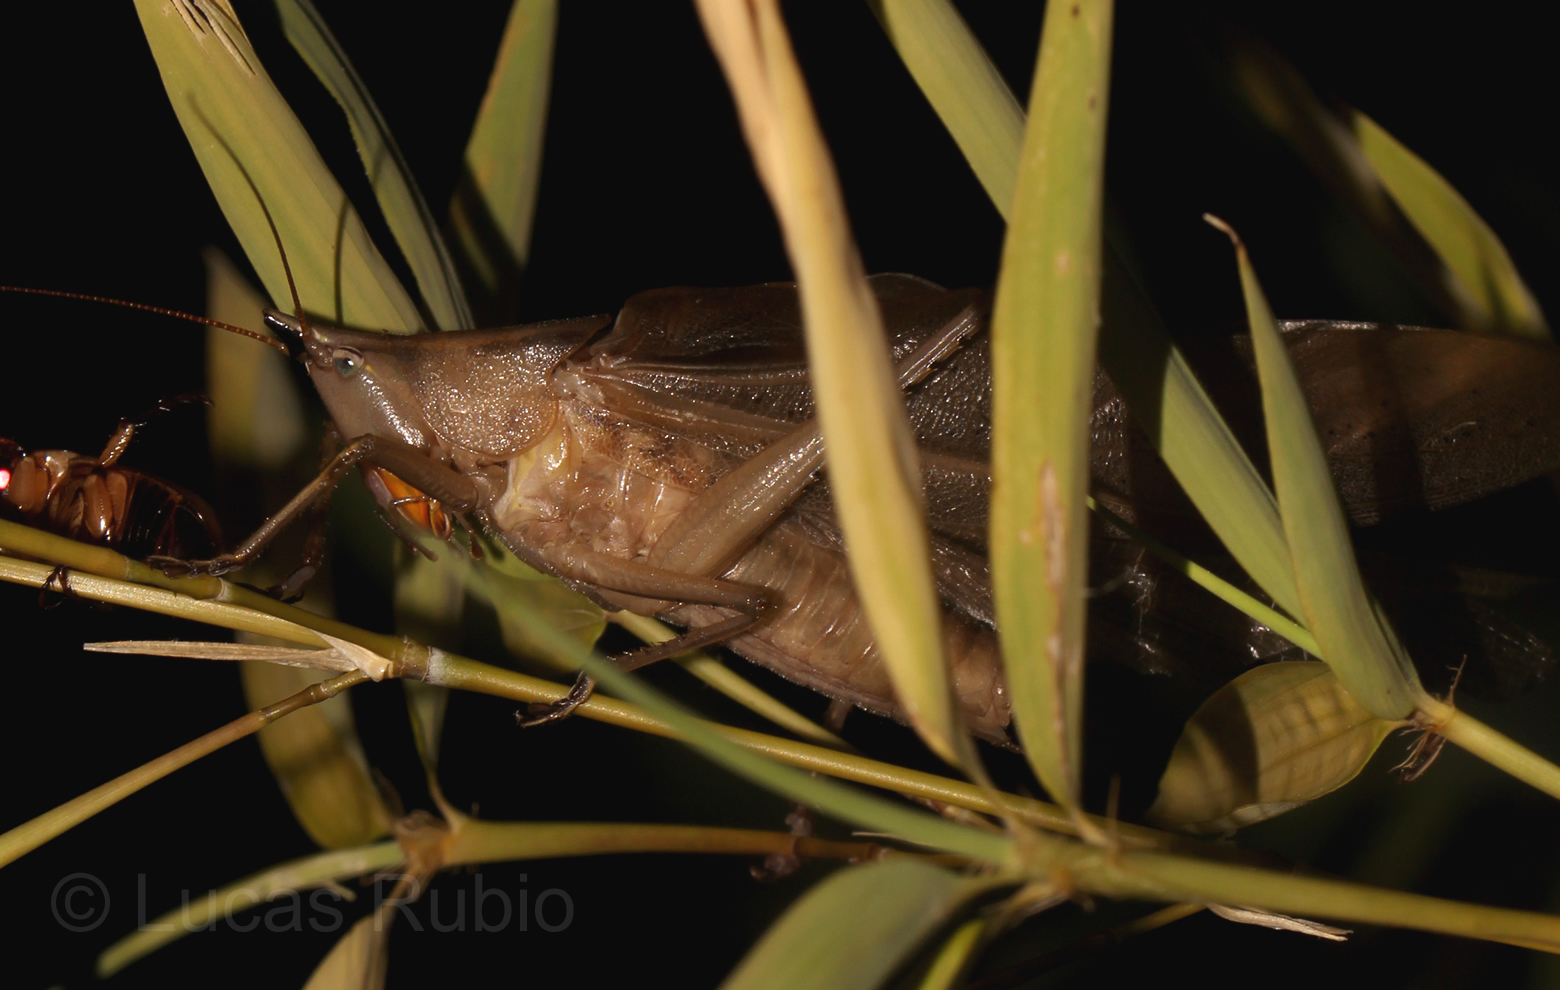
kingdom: Animalia
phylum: Arthropoda
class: Insecta
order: Orthoptera
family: Tettigoniidae
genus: Neoconocephalus
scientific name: Neoconocephalus nigromaculatus
